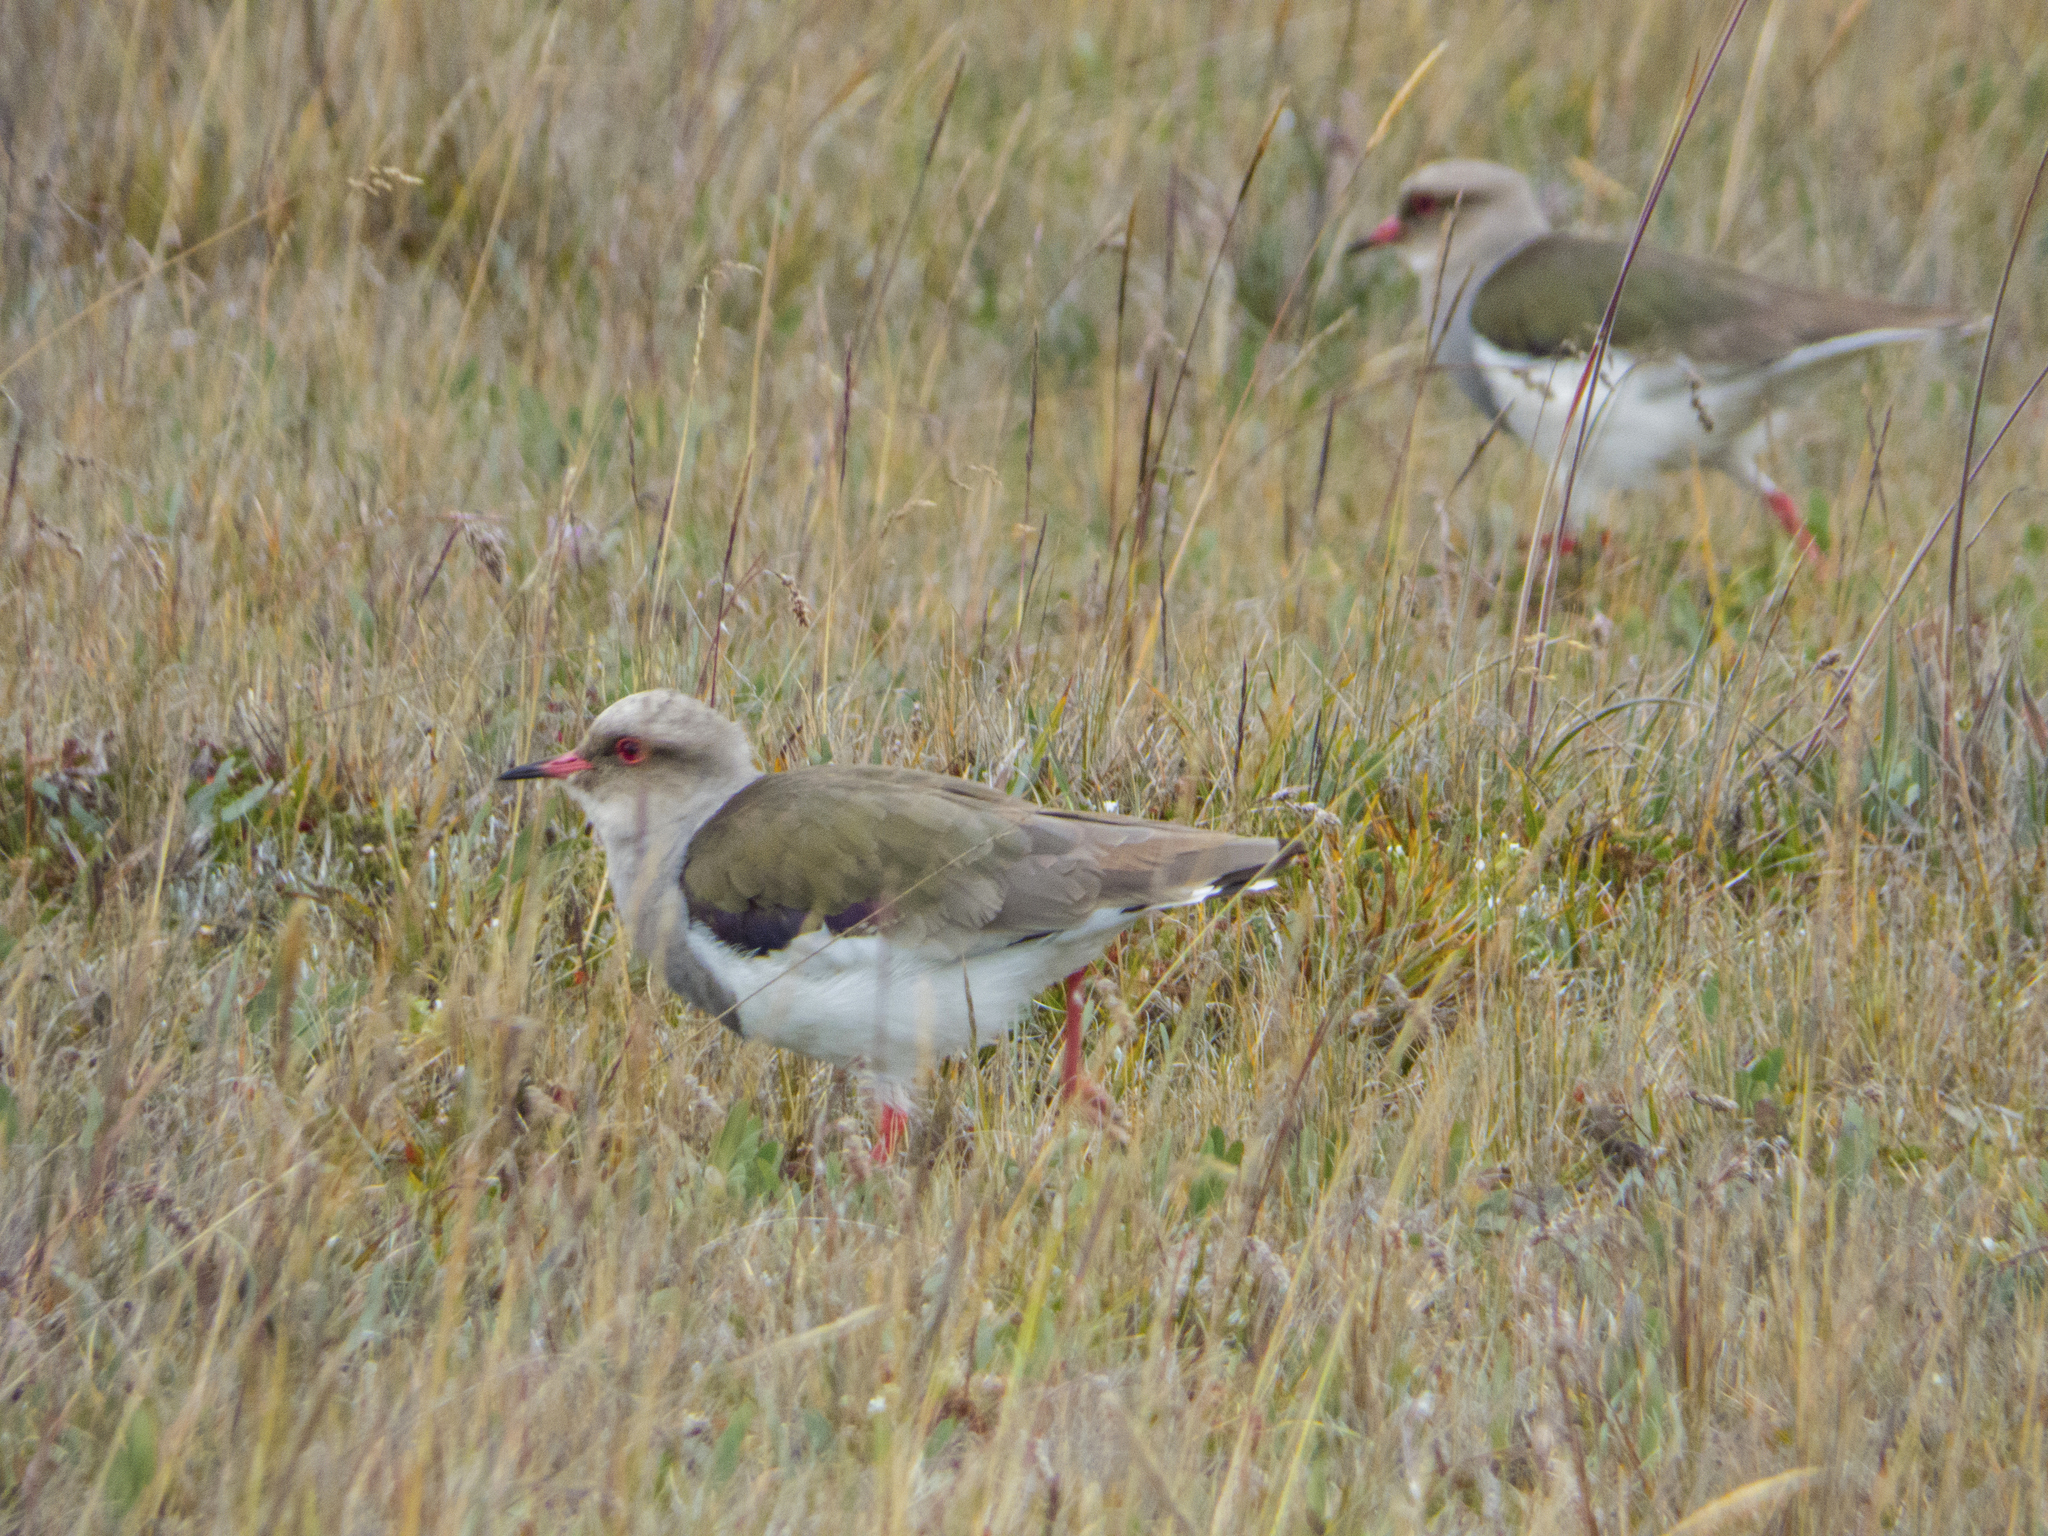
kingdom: Animalia
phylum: Chordata
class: Aves
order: Charadriiformes
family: Charadriidae
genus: Vanellus
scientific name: Vanellus resplendens
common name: Andean lapwing
